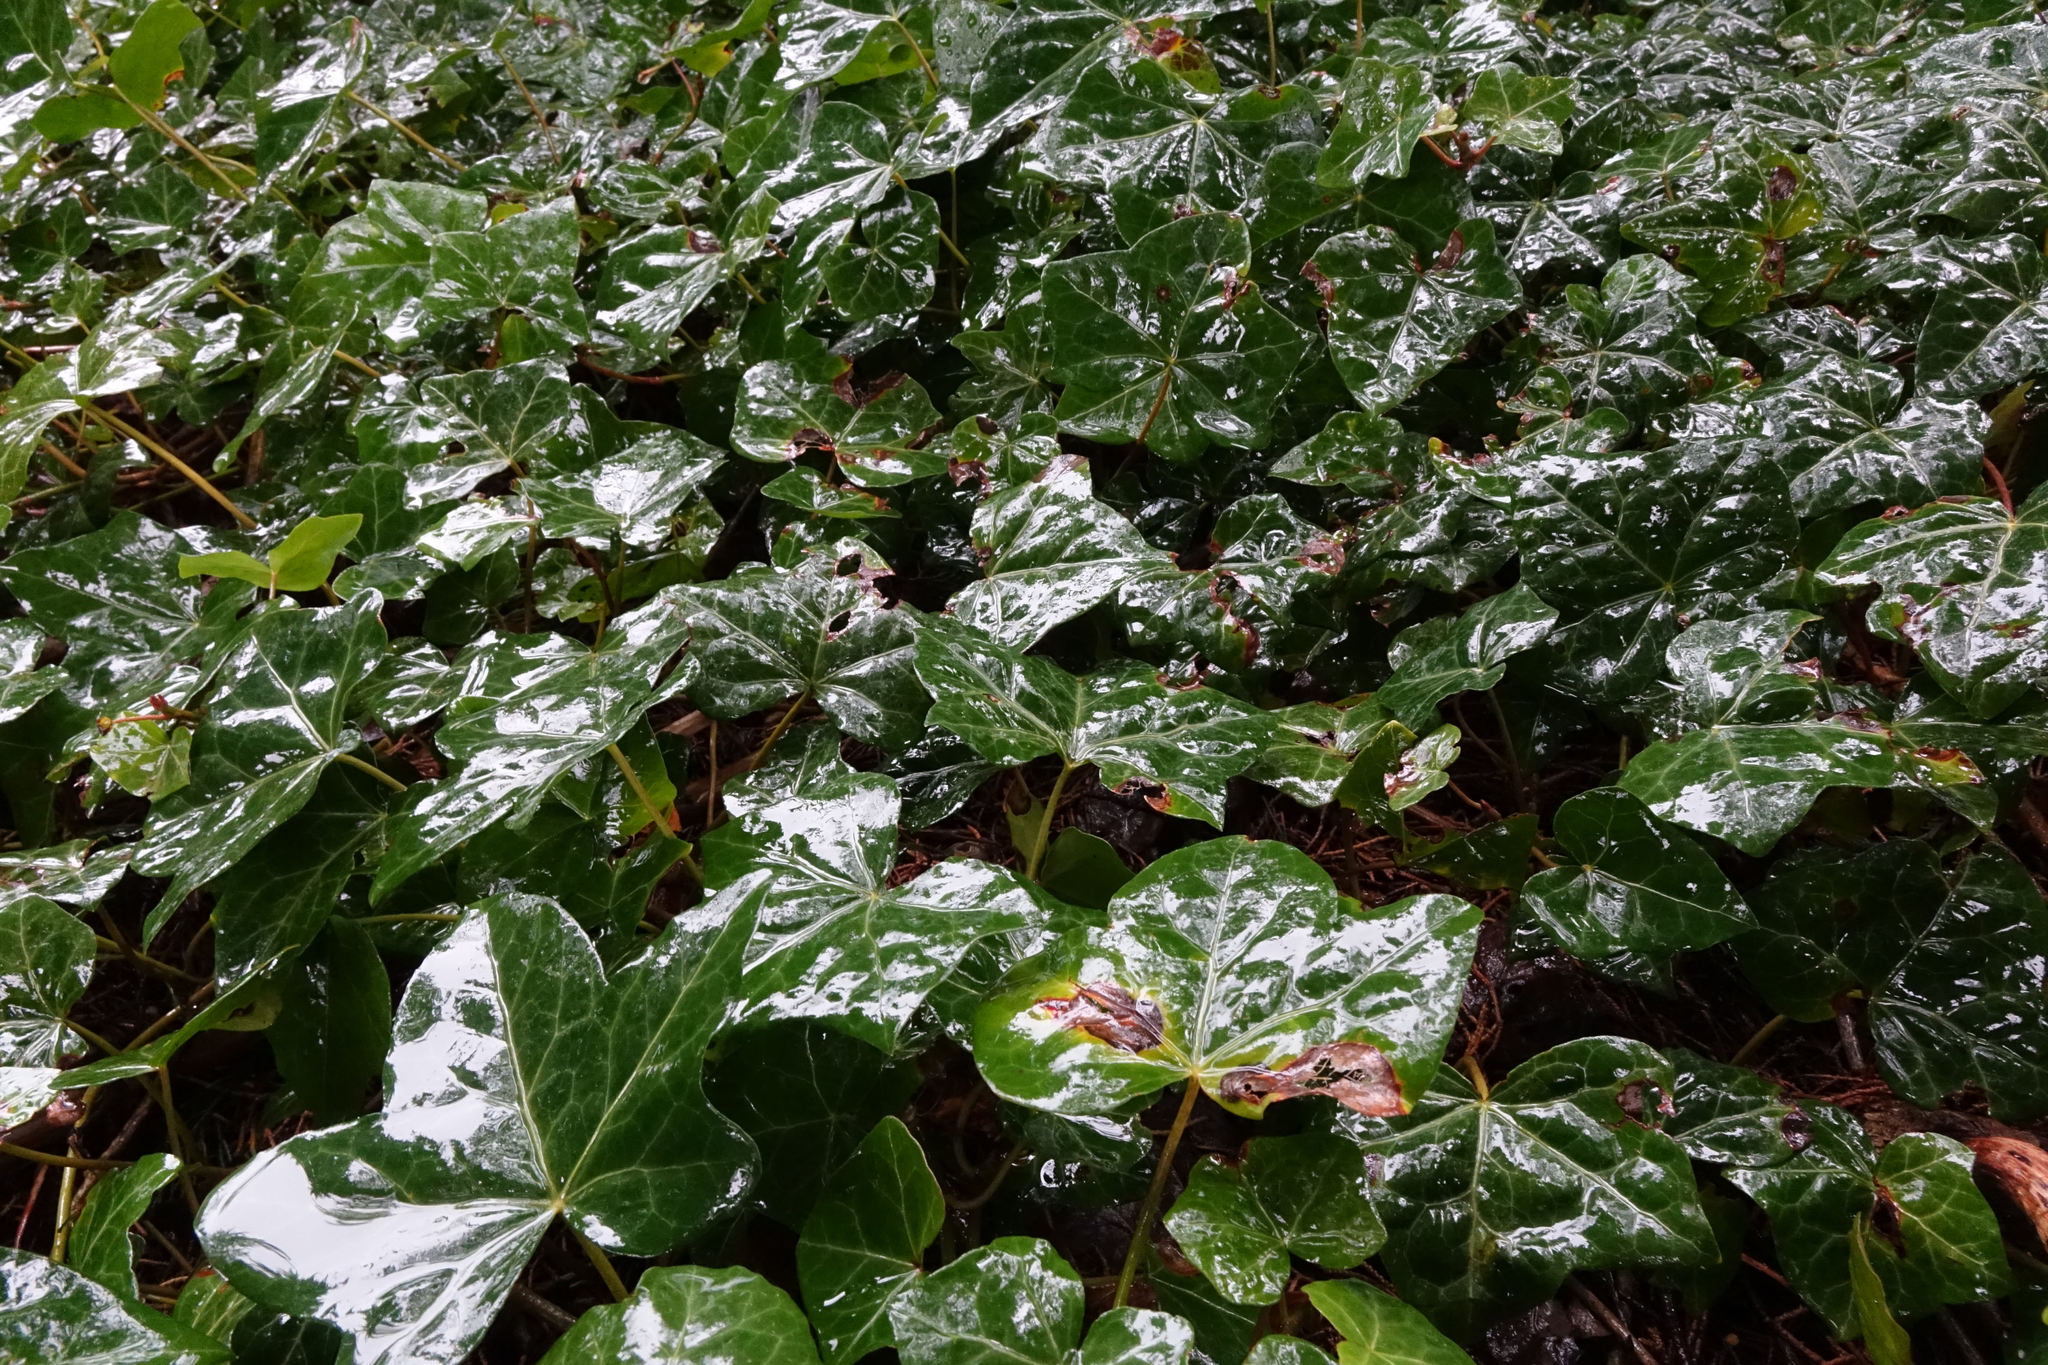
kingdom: Plantae
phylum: Tracheophyta
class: Magnoliopsida
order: Apiales
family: Araliaceae
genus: Hedera
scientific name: Hedera helix
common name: Ivy
